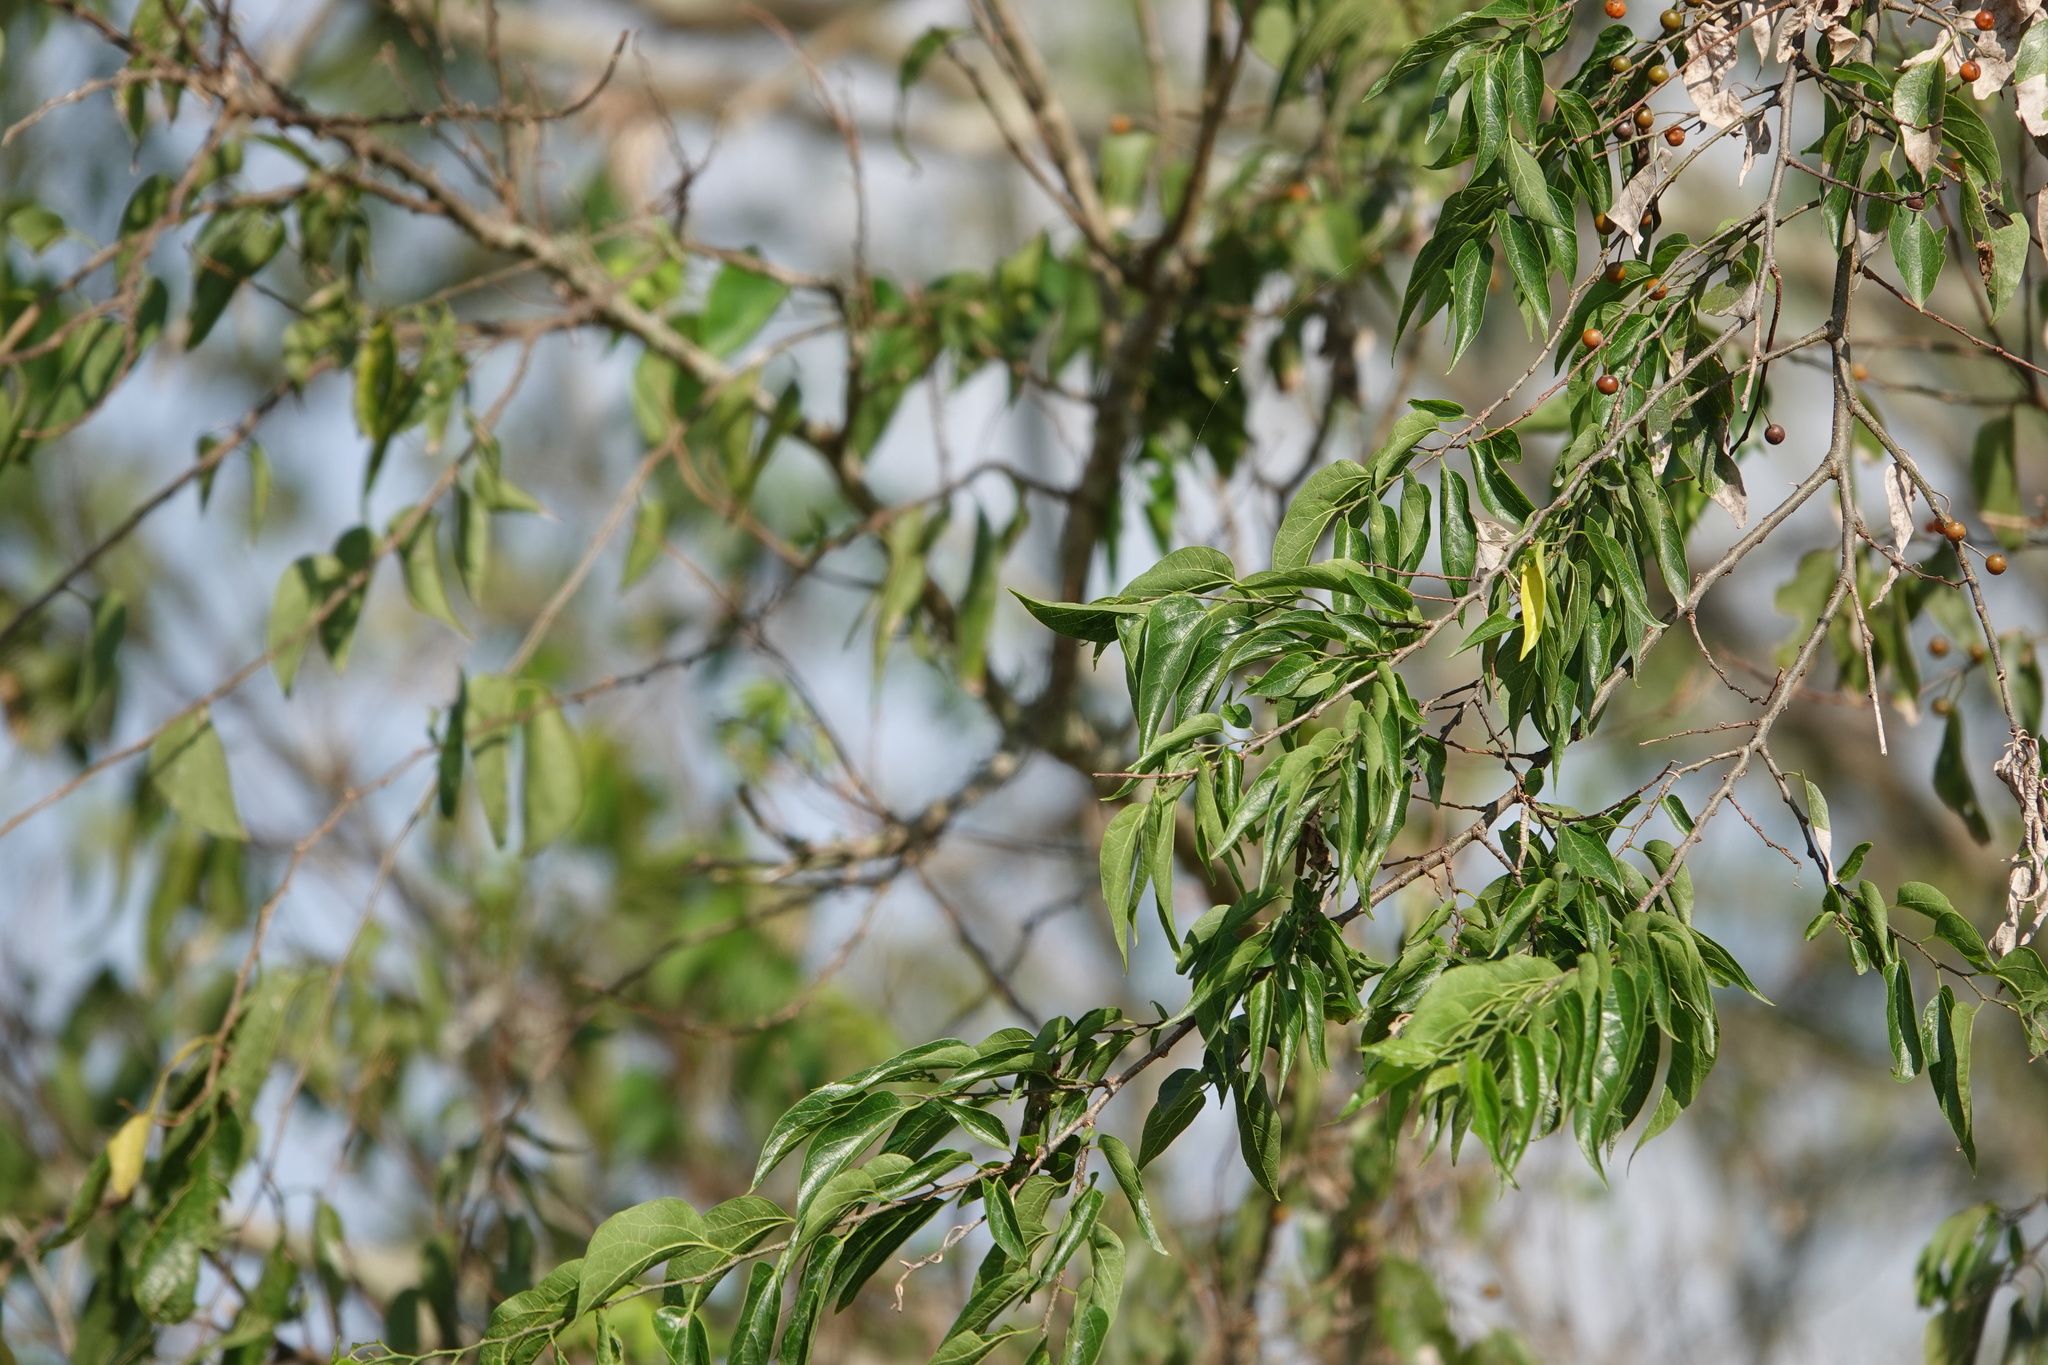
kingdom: Plantae
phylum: Tracheophyta
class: Magnoliopsida
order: Rosales
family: Cannabaceae
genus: Celtis
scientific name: Celtis laevigata
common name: Sugarberry
